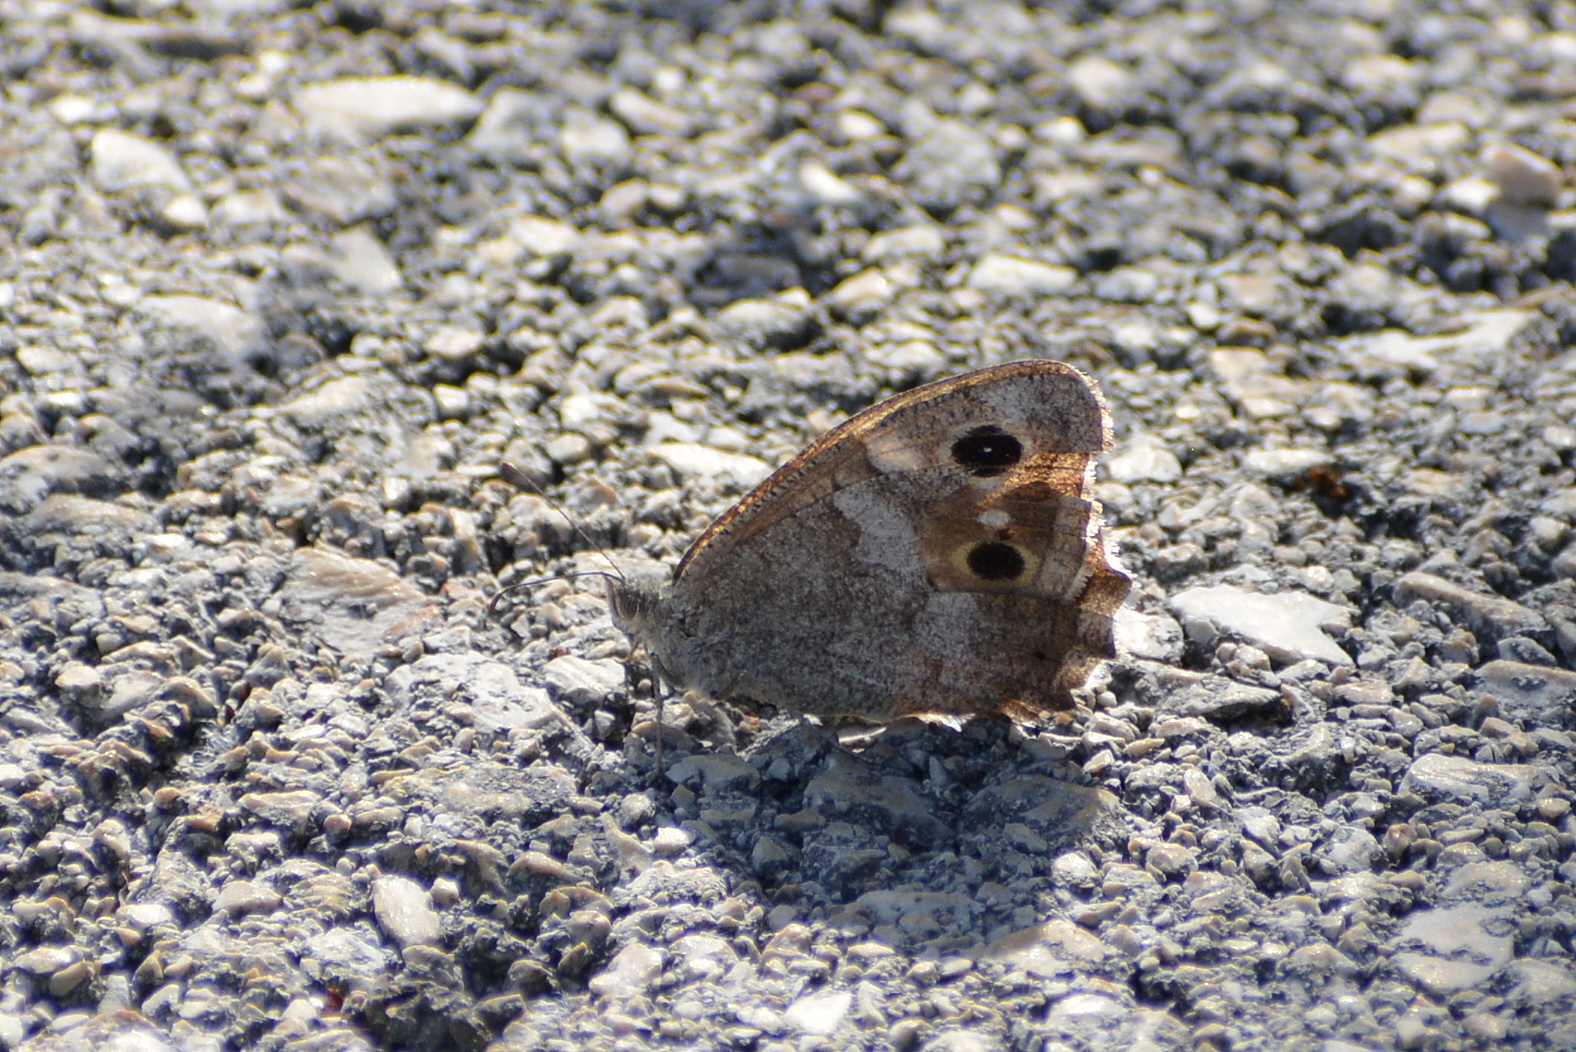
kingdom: Animalia
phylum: Arthropoda
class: Insecta
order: Lepidoptera
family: Nymphalidae
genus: Hipparchia
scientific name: Hipparchia statilinus
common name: Tree grayling
